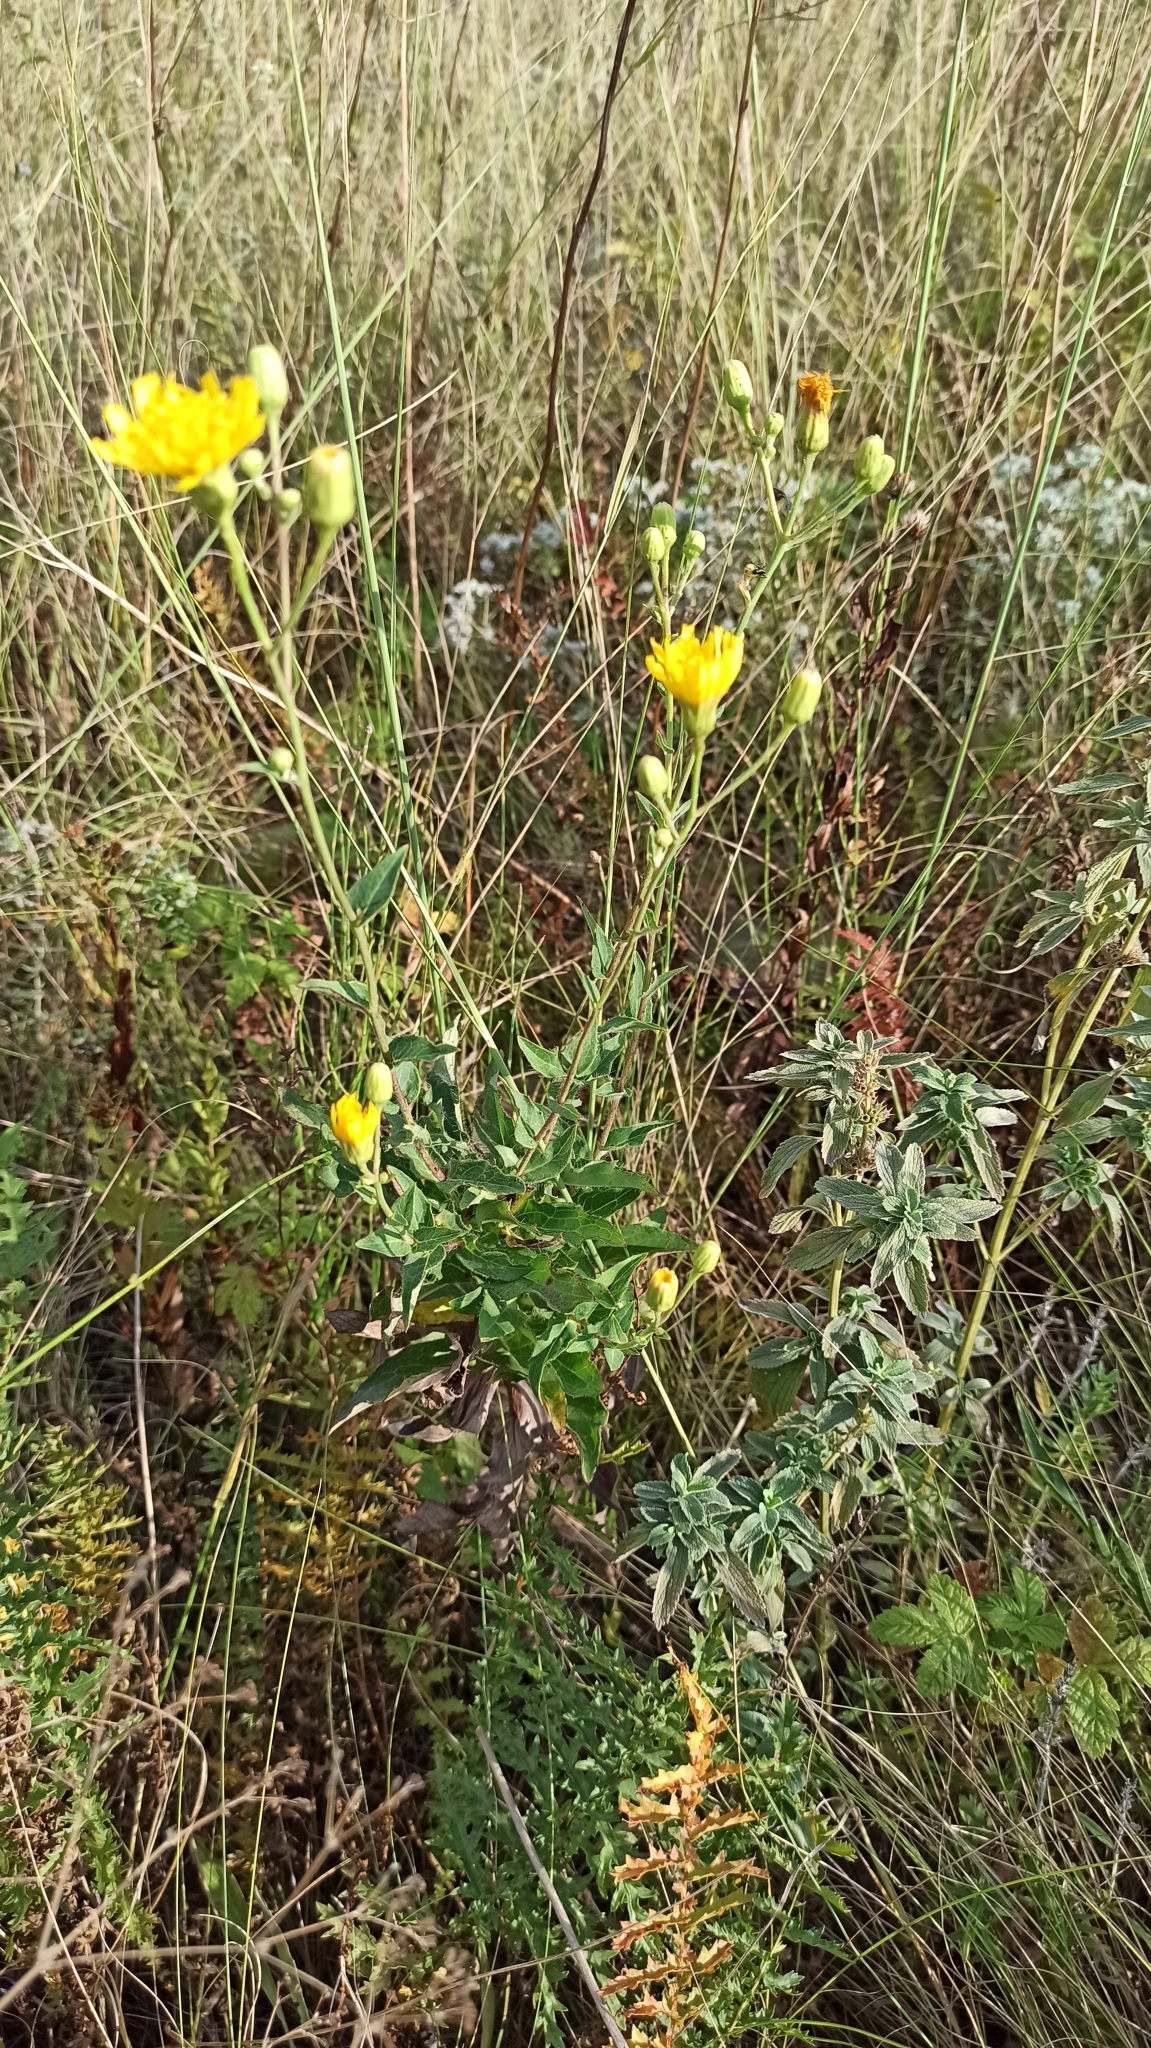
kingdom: Plantae
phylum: Tracheophyta
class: Magnoliopsida
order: Asterales
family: Asteraceae
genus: Hieracium
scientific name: Hieracium virosum
